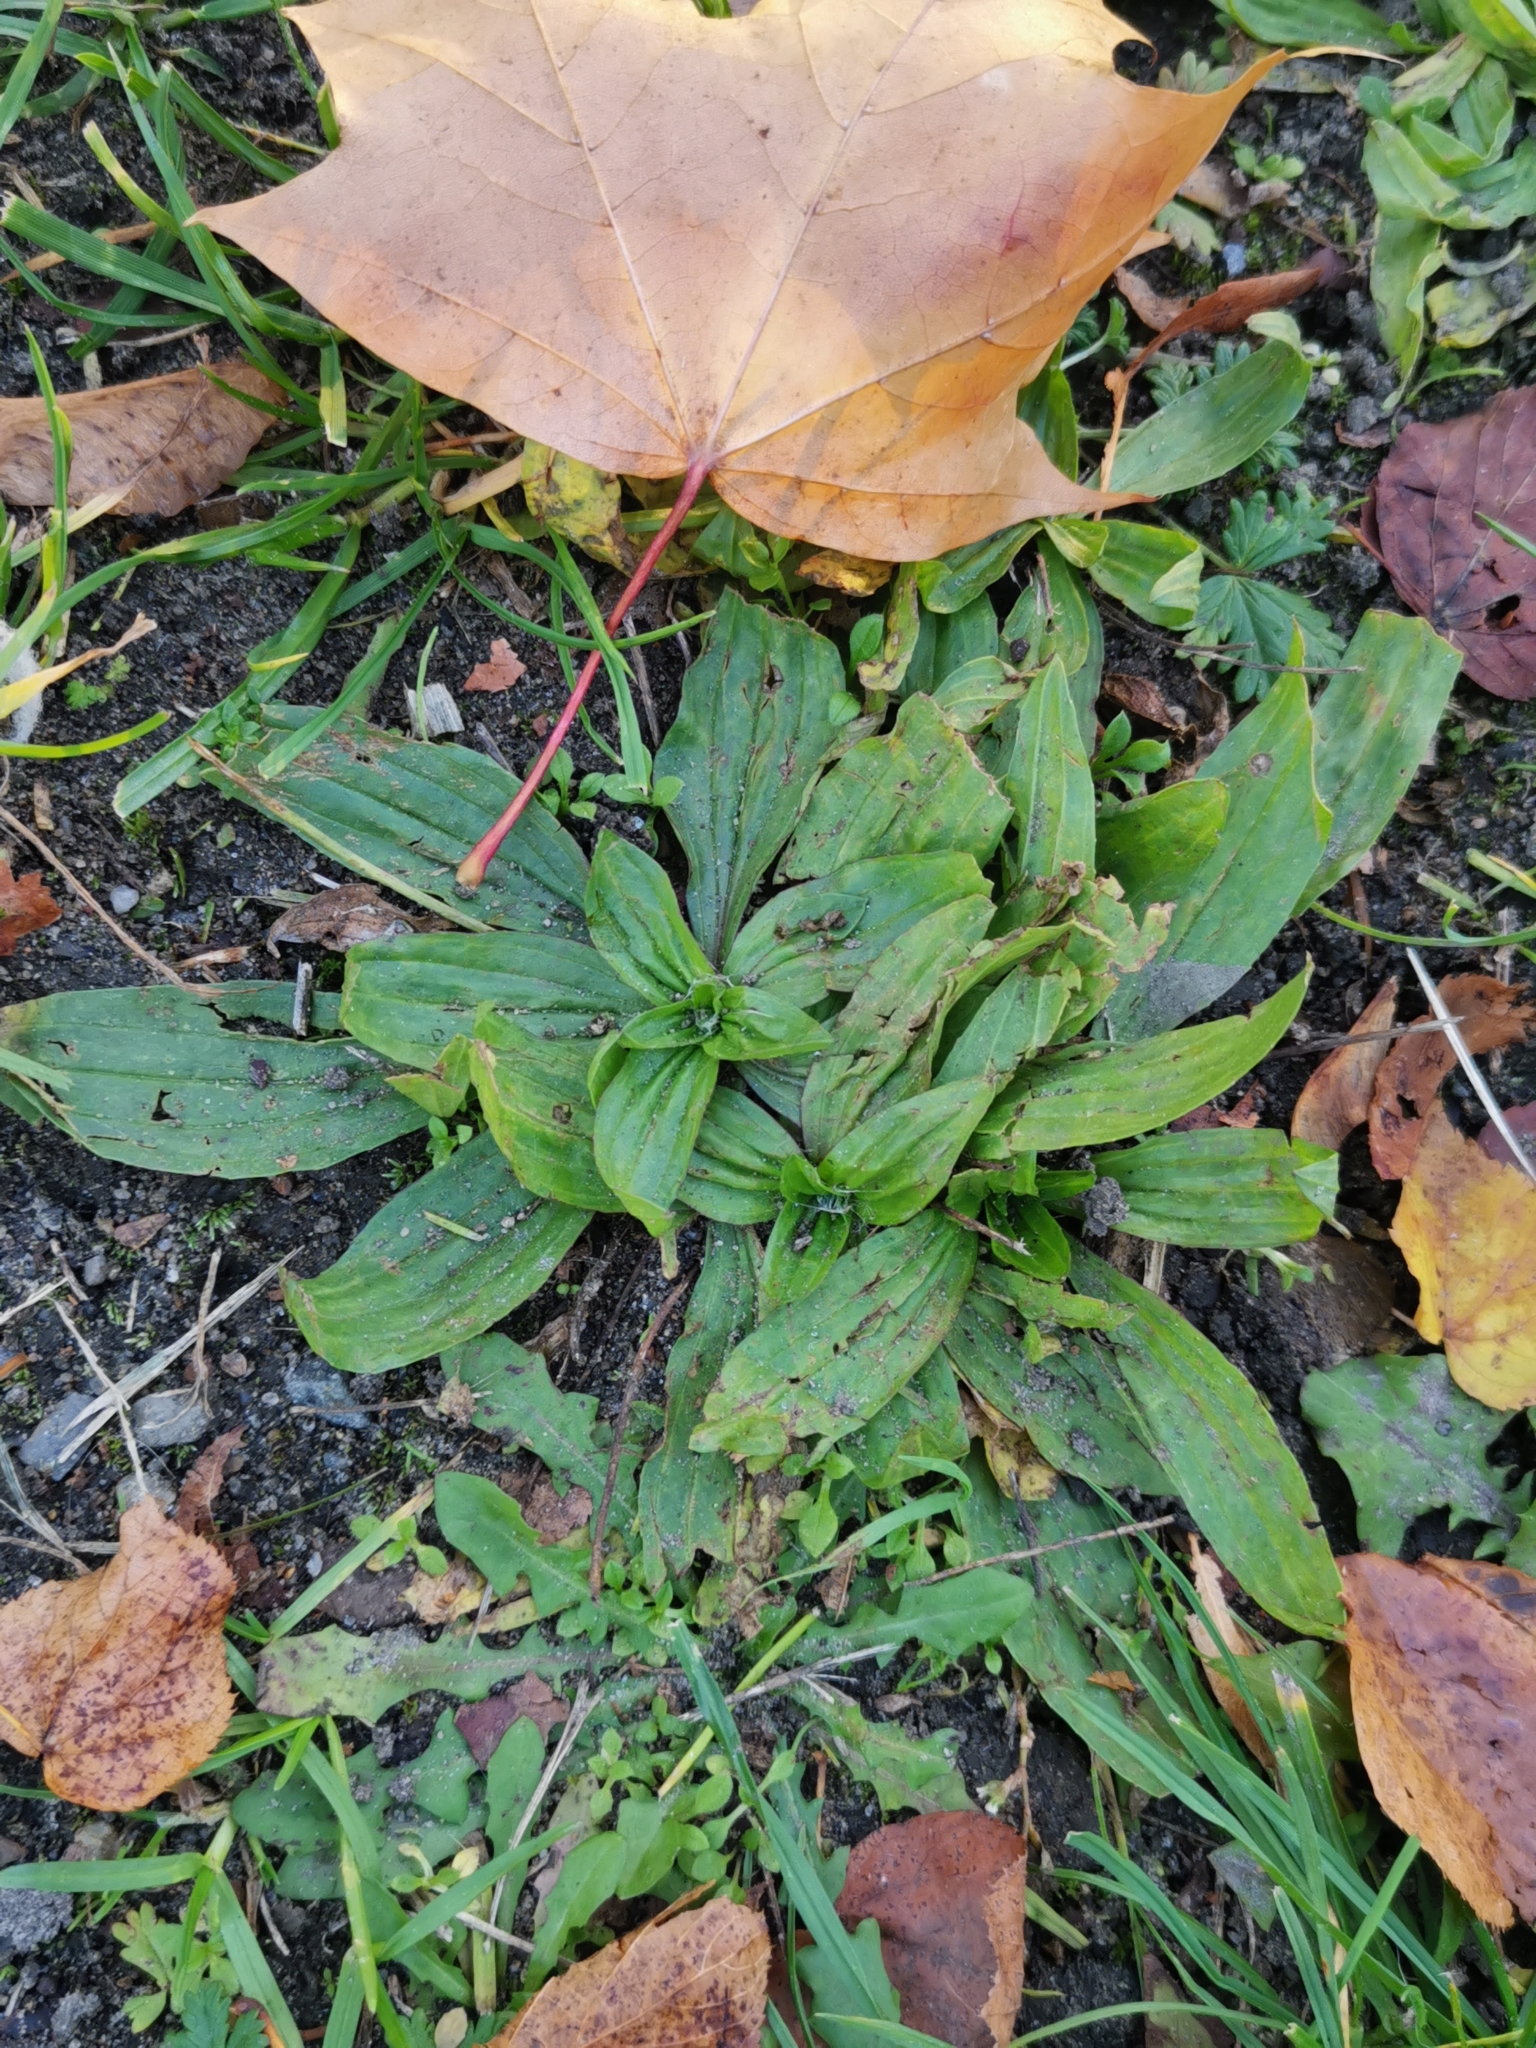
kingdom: Plantae
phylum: Tracheophyta
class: Magnoliopsida
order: Lamiales
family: Plantaginaceae
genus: Plantago
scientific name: Plantago lanceolata
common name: Ribwort plantain
